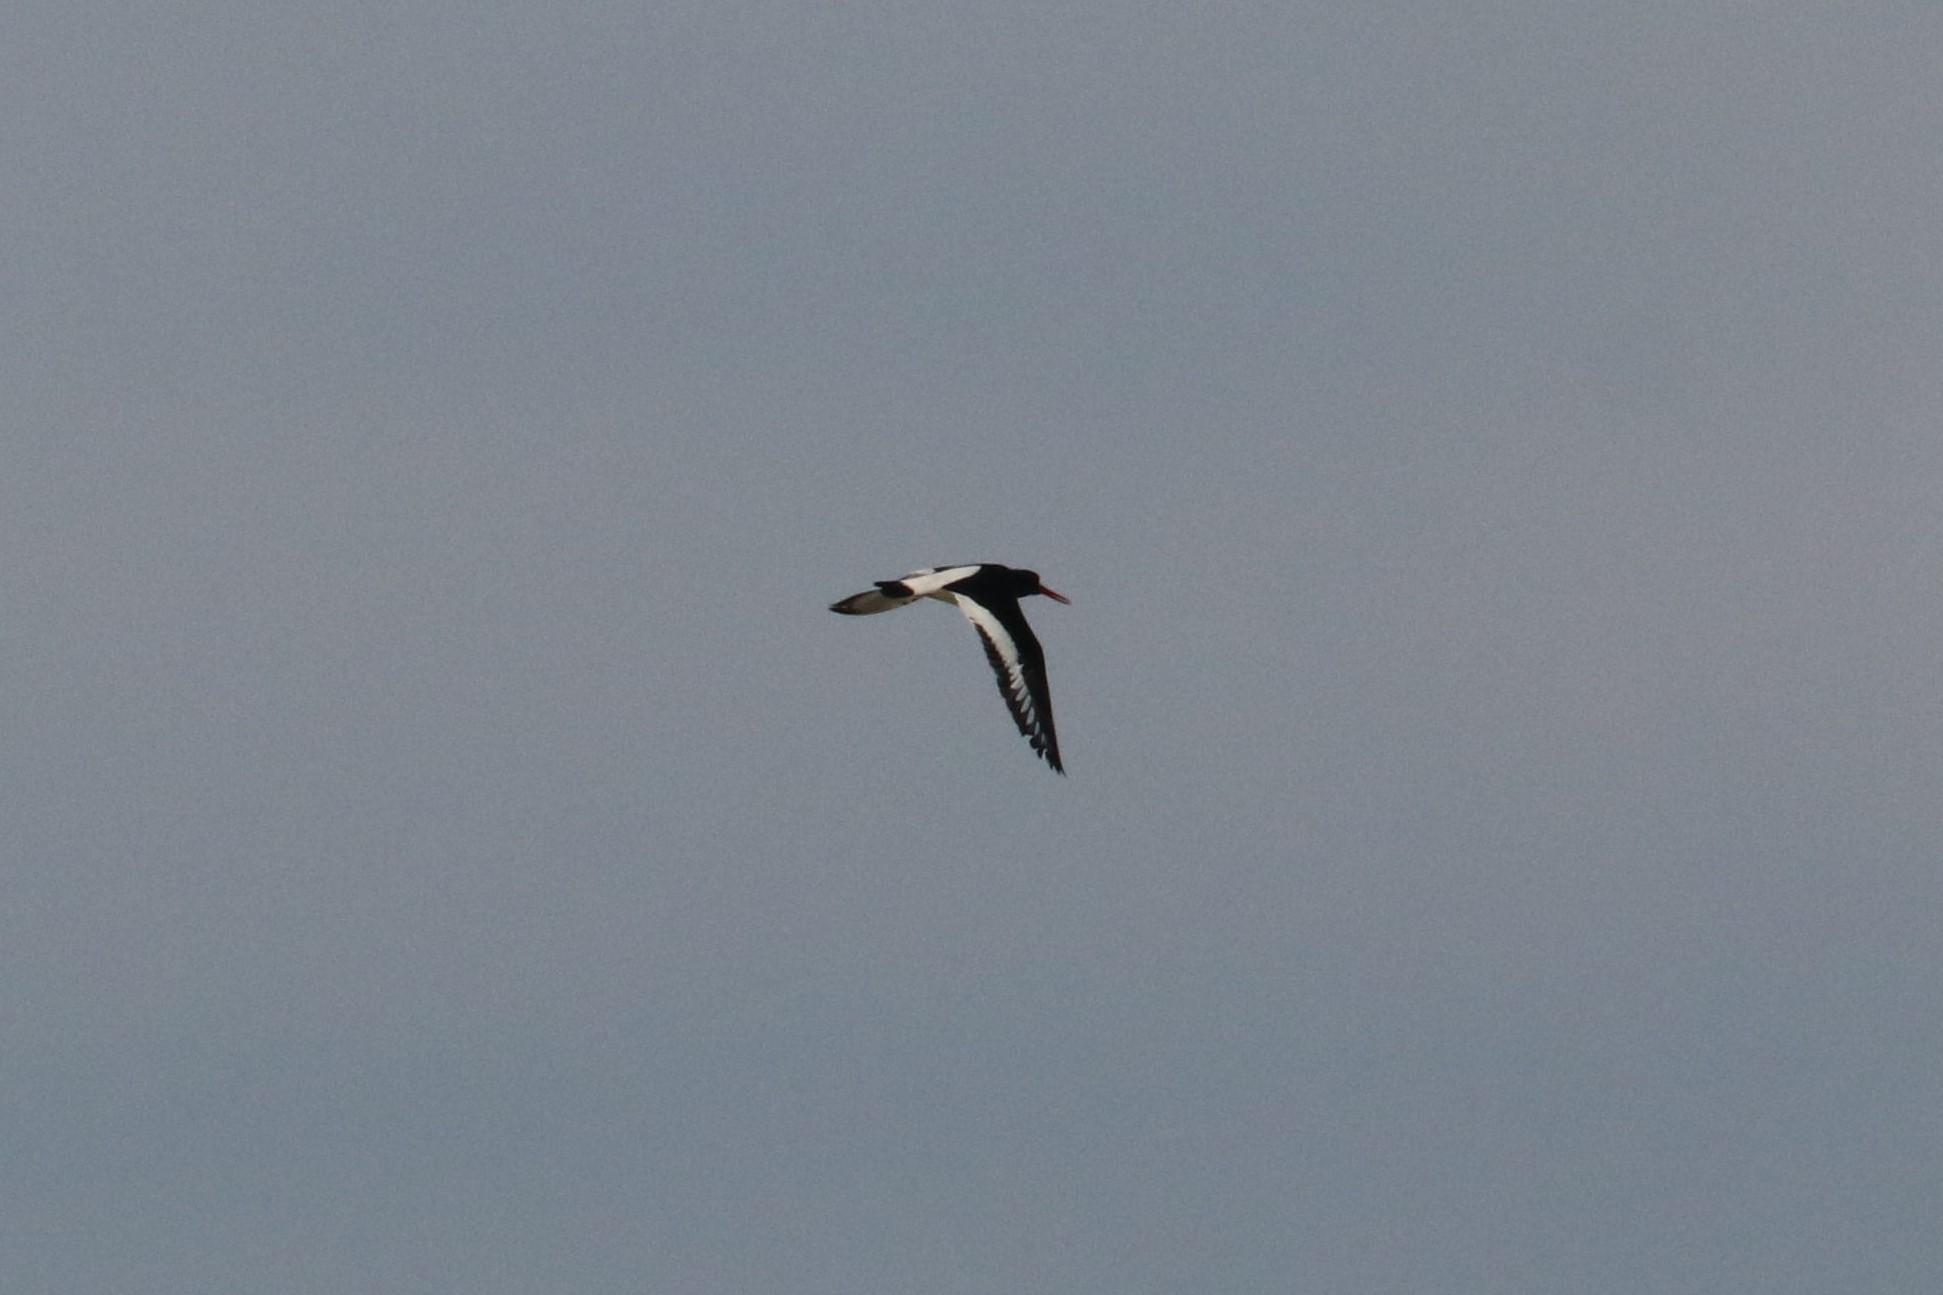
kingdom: Animalia
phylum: Chordata
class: Aves
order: Charadriiformes
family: Haematopodidae
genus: Haematopus
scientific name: Haematopus ostralegus
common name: Eurasian oystercatcher
